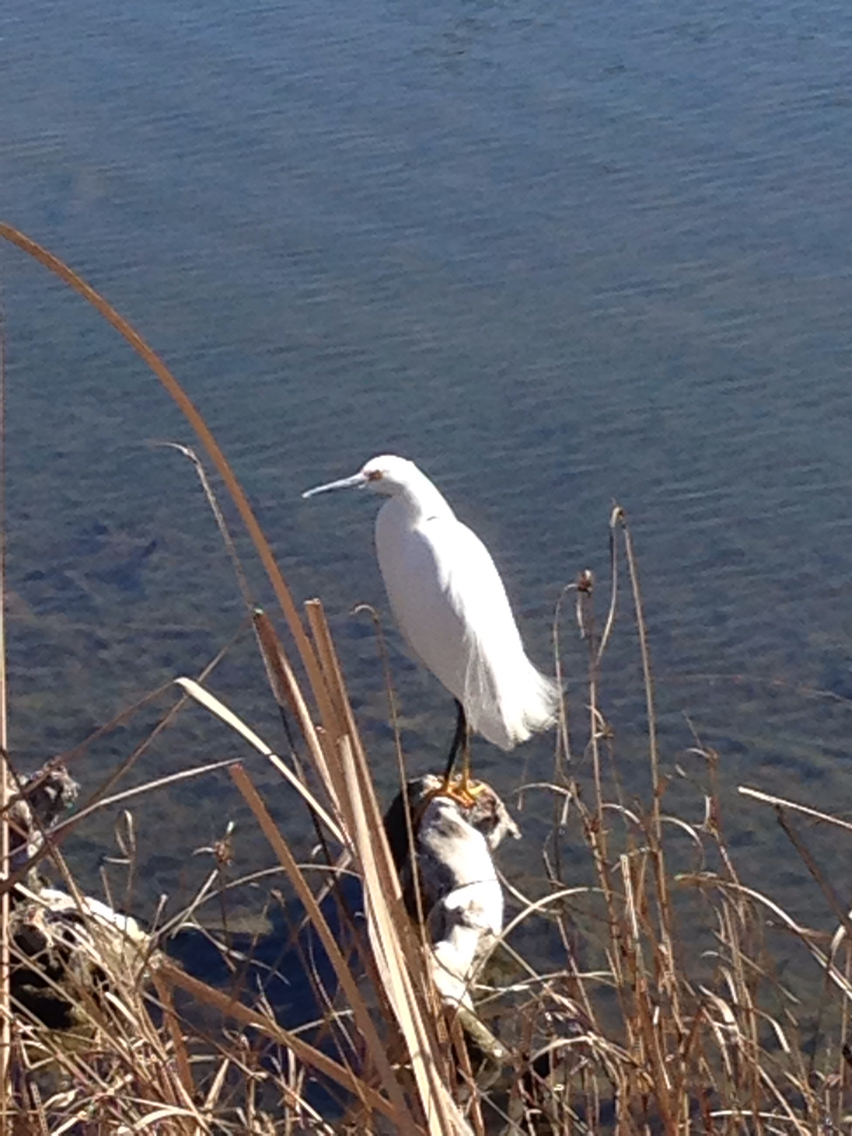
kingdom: Animalia
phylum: Chordata
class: Aves
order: Pelecaniformes
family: Ardeidae
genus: Egretta
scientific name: Egretta thula
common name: Snowy egret
